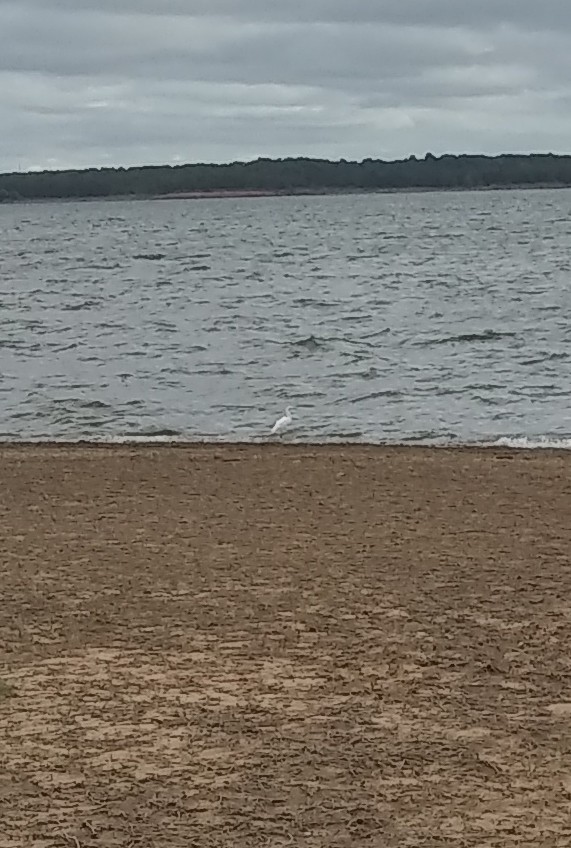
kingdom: Animalia
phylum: Chordata
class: Aves
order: Pelecaniformes
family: Ardeidae
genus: Egretta
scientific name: Egretta thula
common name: Snowy egret
